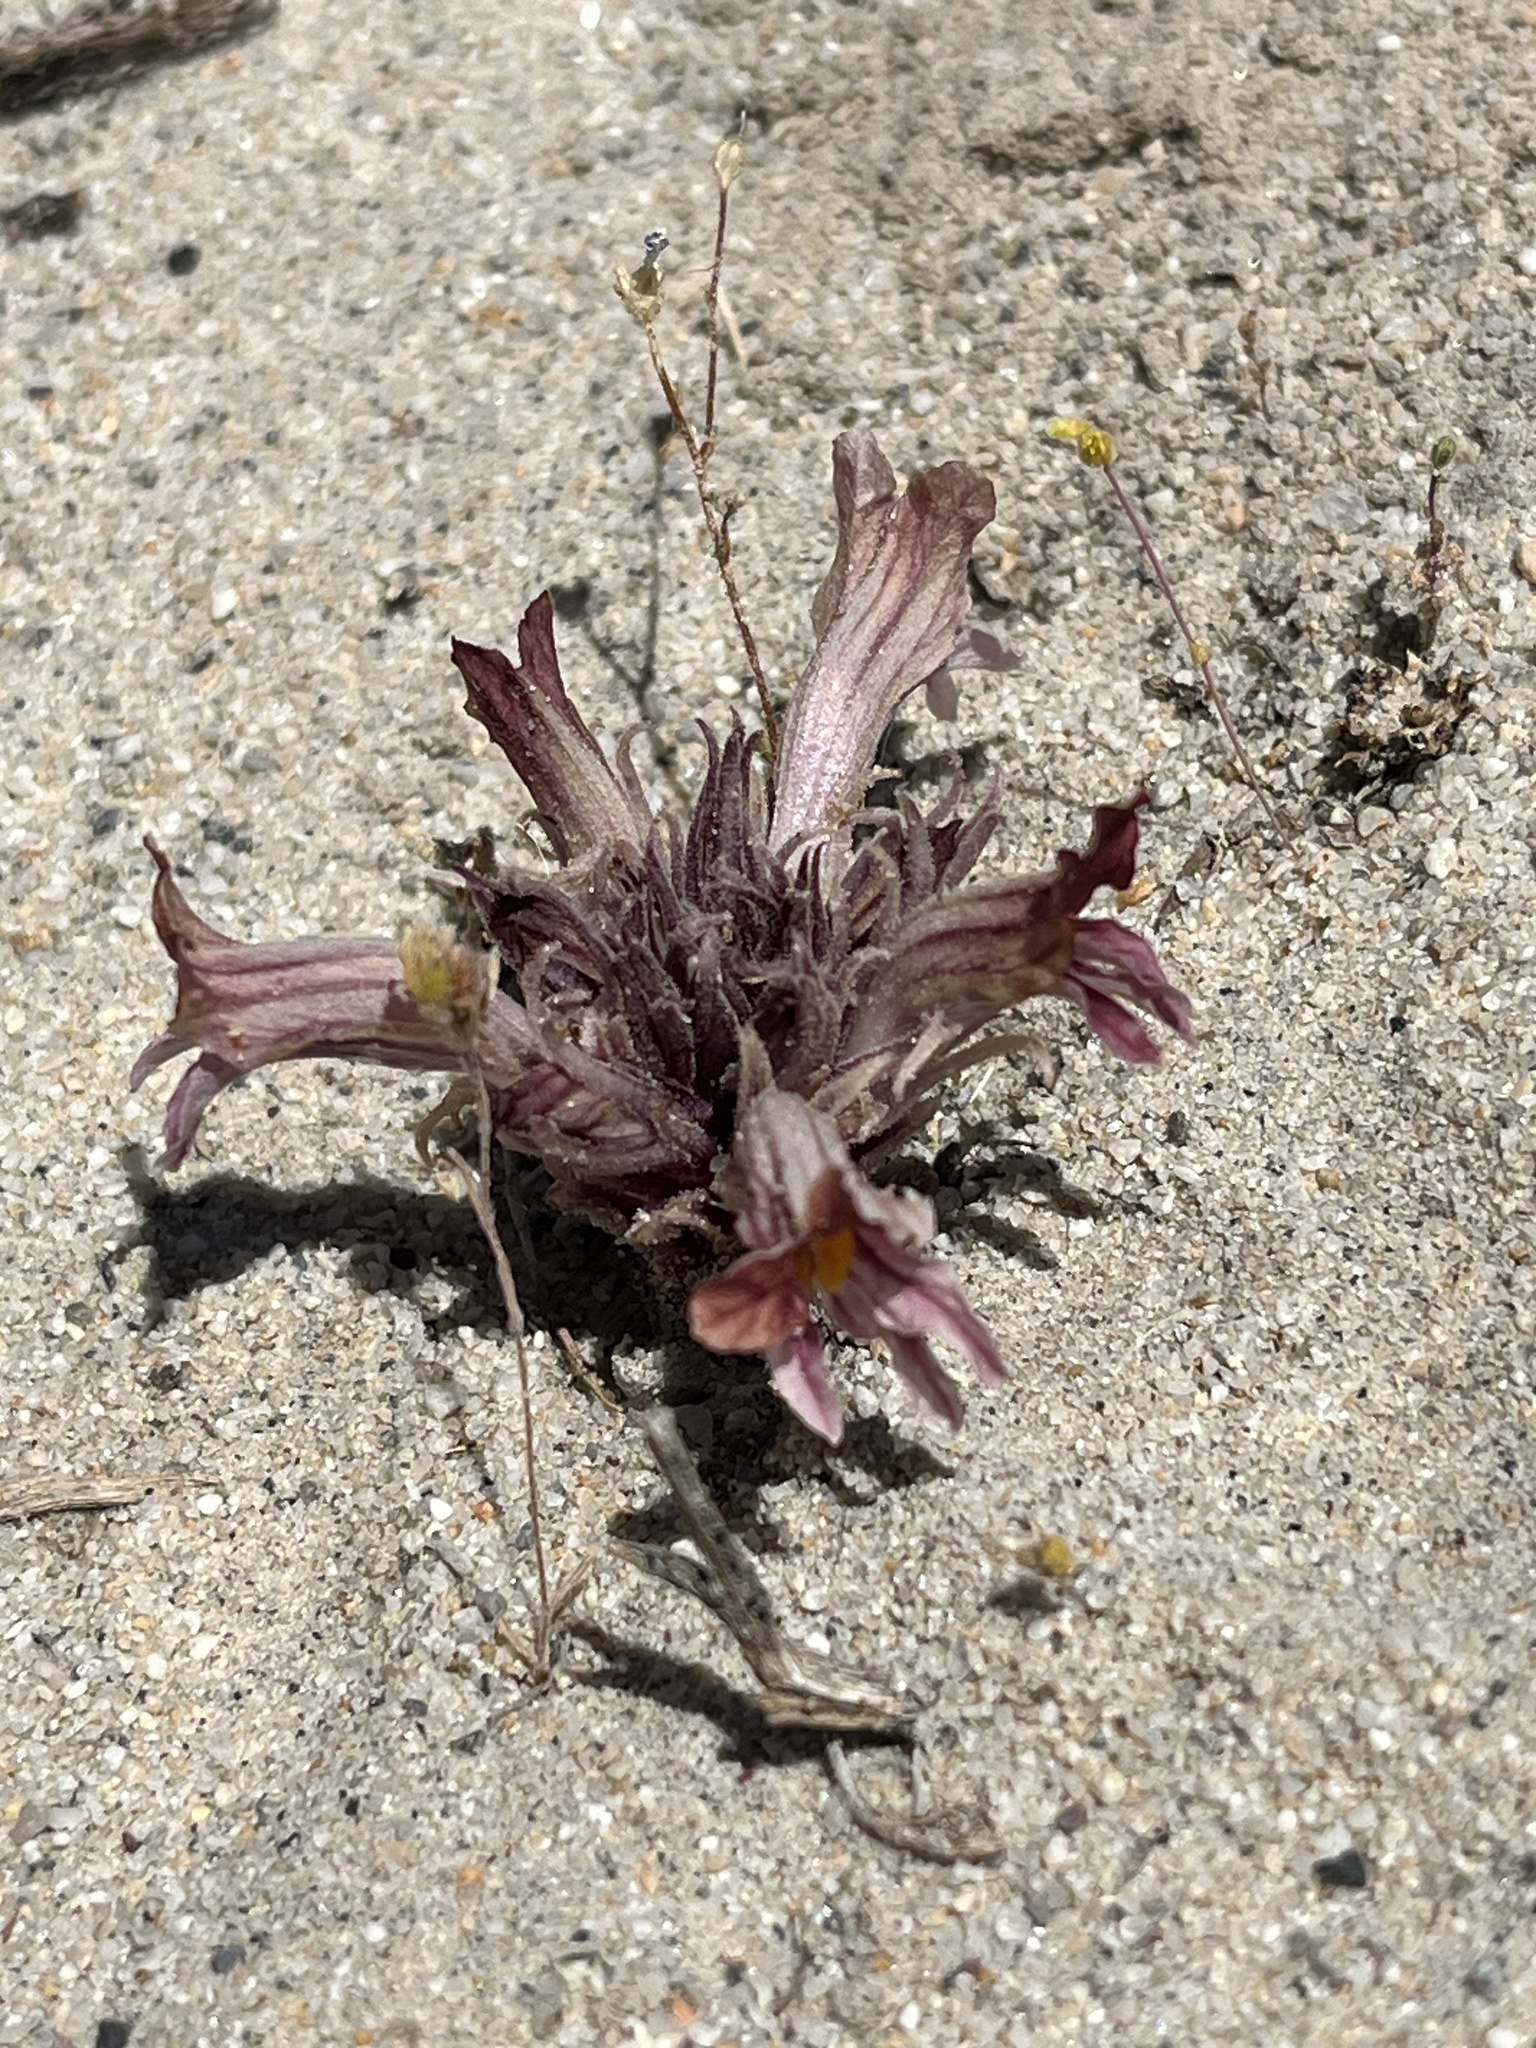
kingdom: Plantae
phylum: Tracheophyta
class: Magnoliopsida
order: Lamiales
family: Orobanchaceae
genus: Aphyllon
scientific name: Aphyllon corymbosum
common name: Flat-top broomrape
